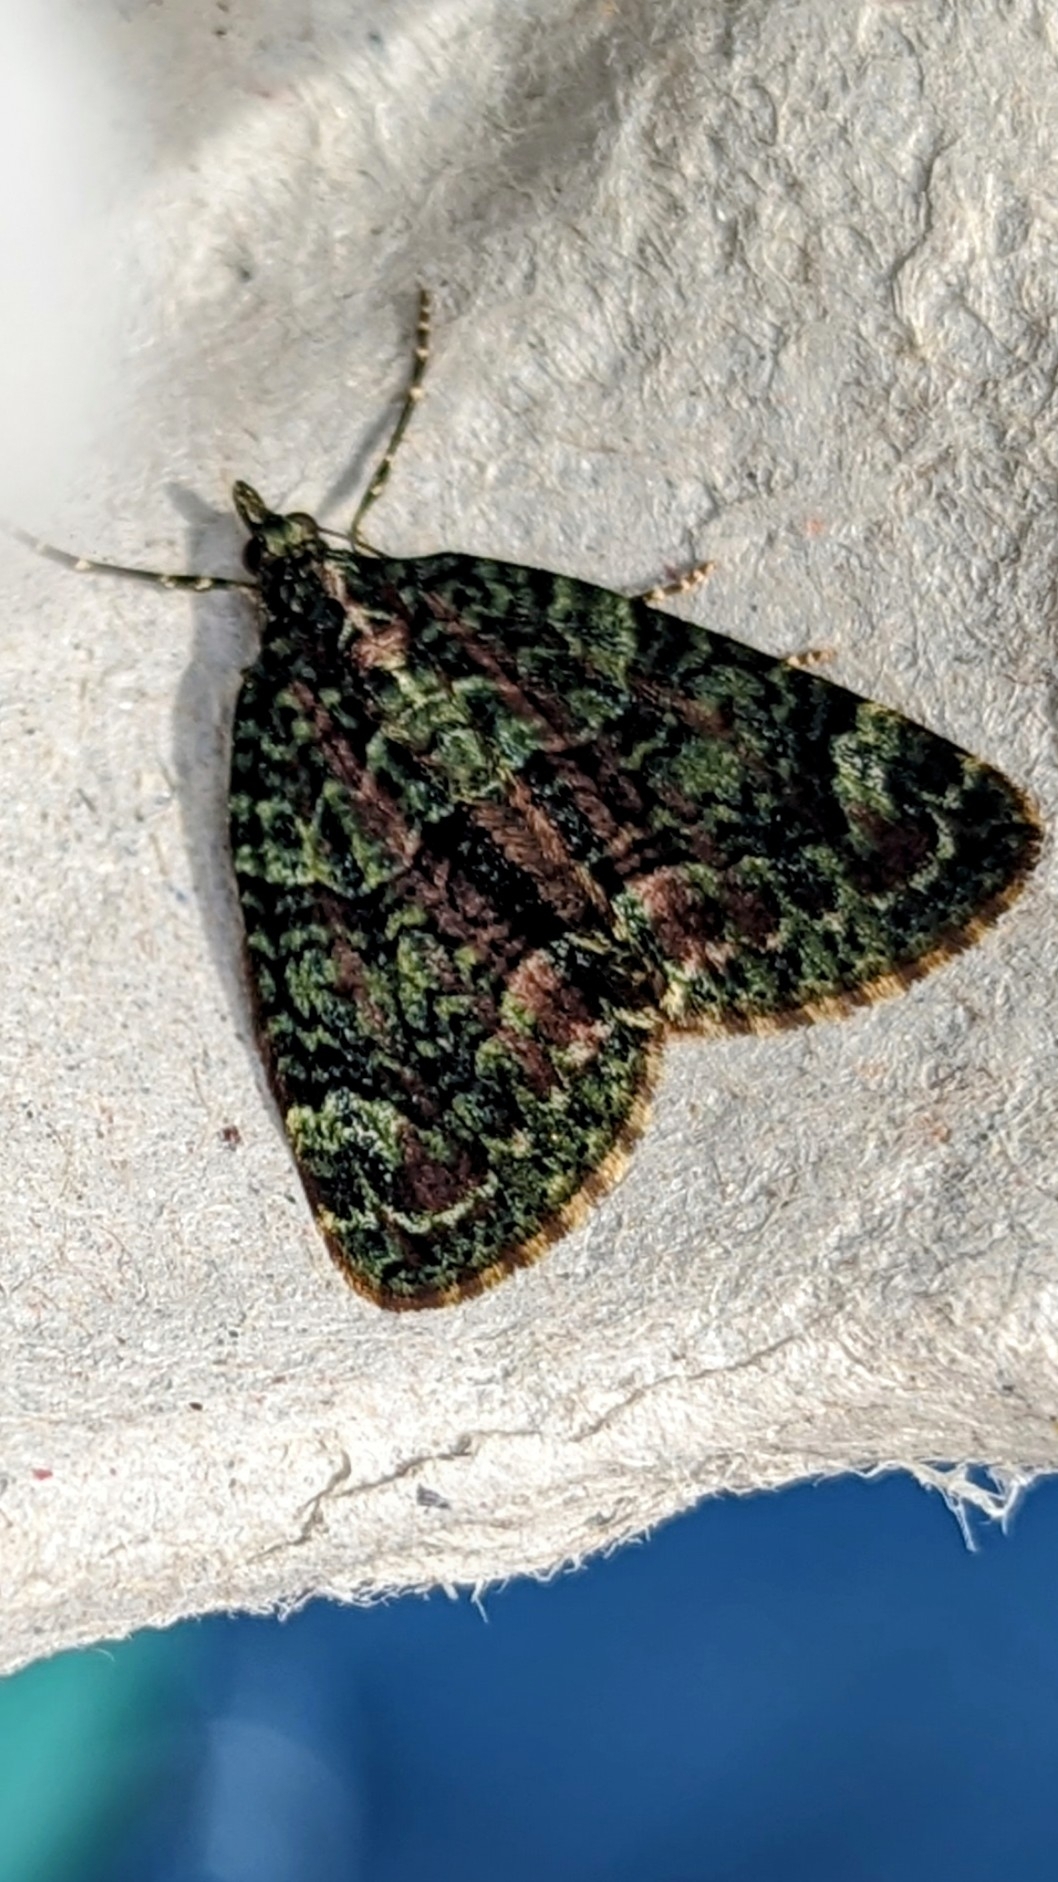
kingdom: Animalia
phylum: Arthropoda
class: Insecta
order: Lepidoptera
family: Geometridae
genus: Chloroclysta
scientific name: Chloroclysta siterata
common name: Red-green carpet
